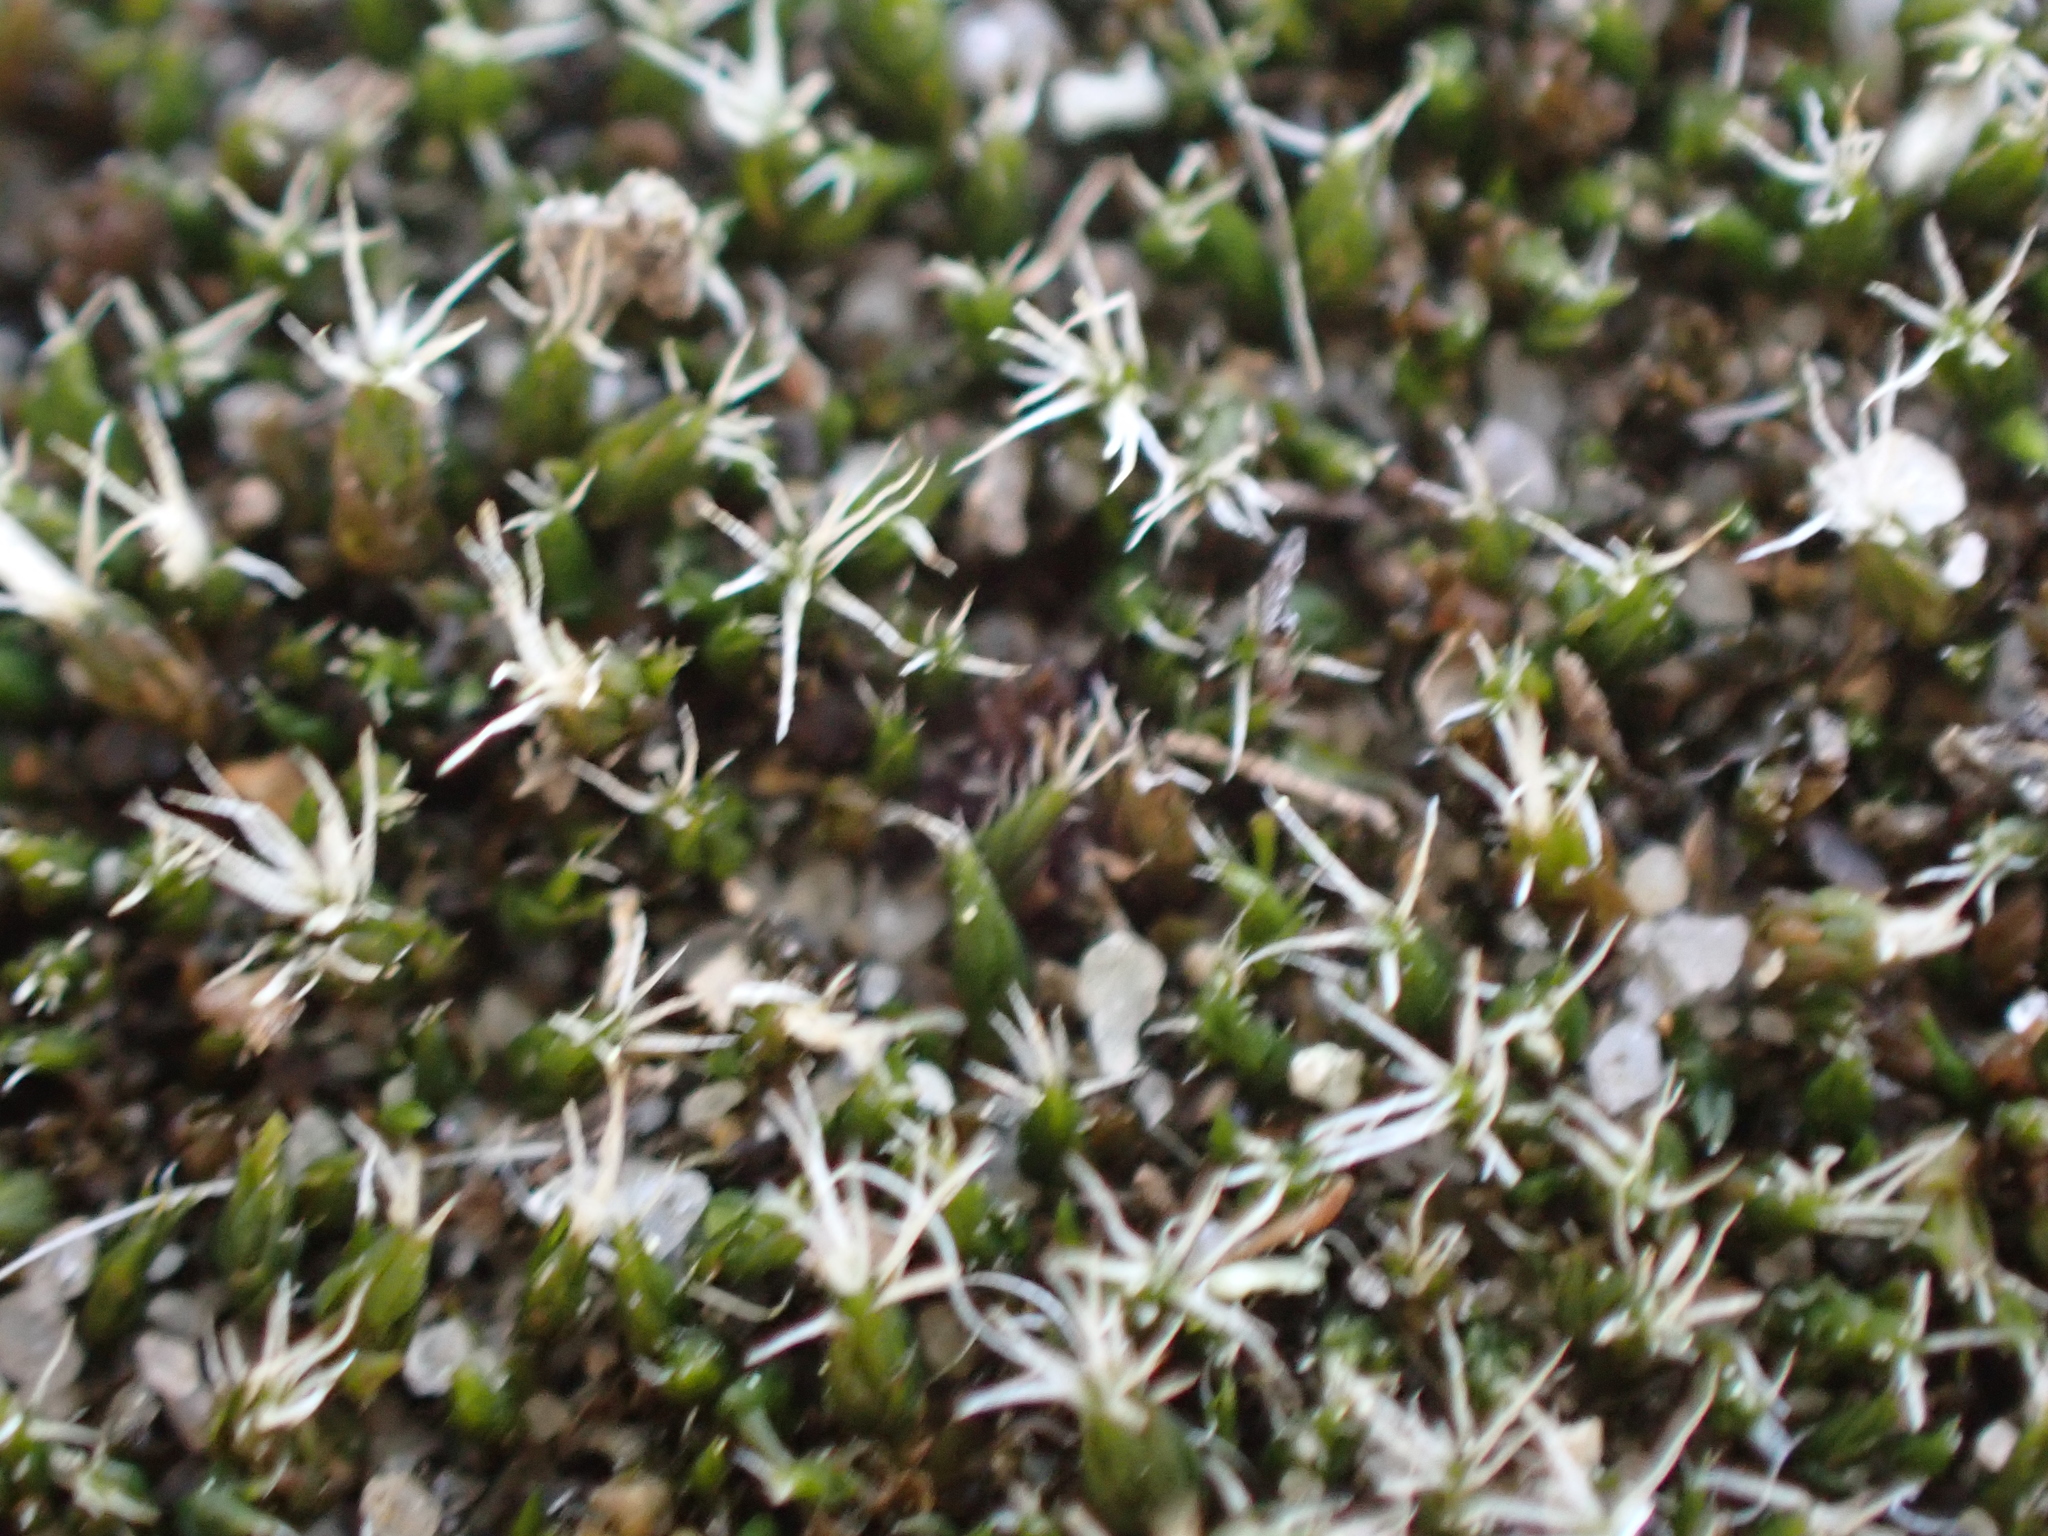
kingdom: Plantae
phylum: Bryophyta
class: Bryopsida
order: Grimmiales
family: Grimmiaceae
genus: Grimmia
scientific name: Grimmia laevigata
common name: Hoary grimmia
